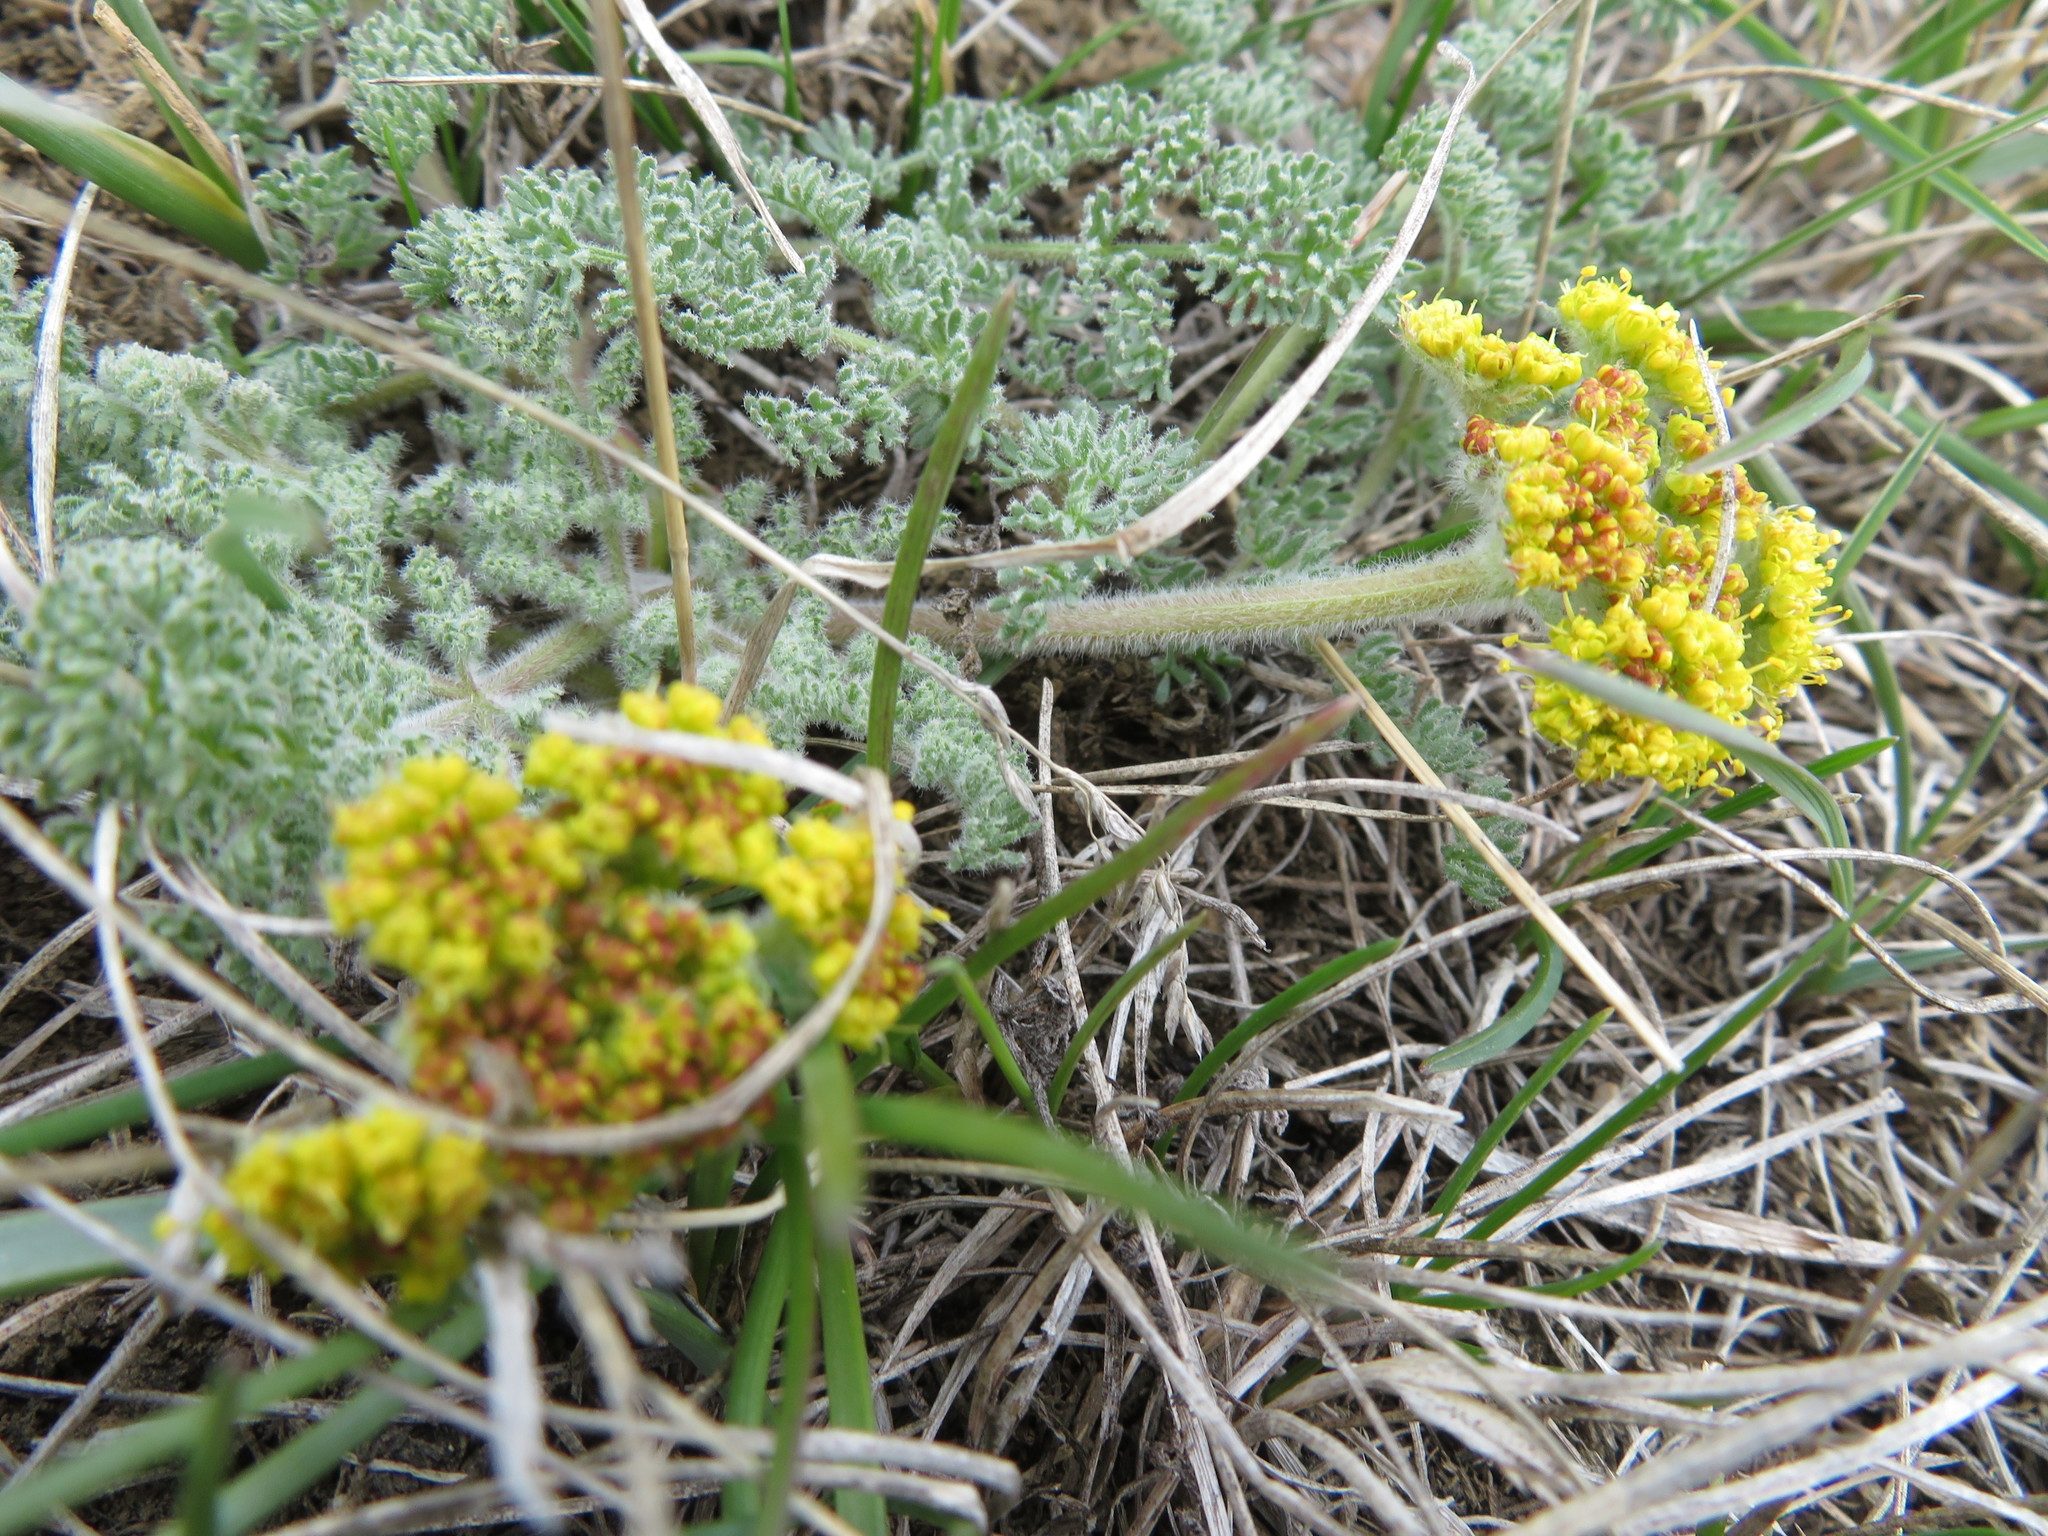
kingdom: Plantae
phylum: Tracheophyta
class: Magnoliopsida
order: Apiales
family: Apiaceae
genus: Lomatium
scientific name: Lomatium foeniculaceum
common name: Desert-parsley
